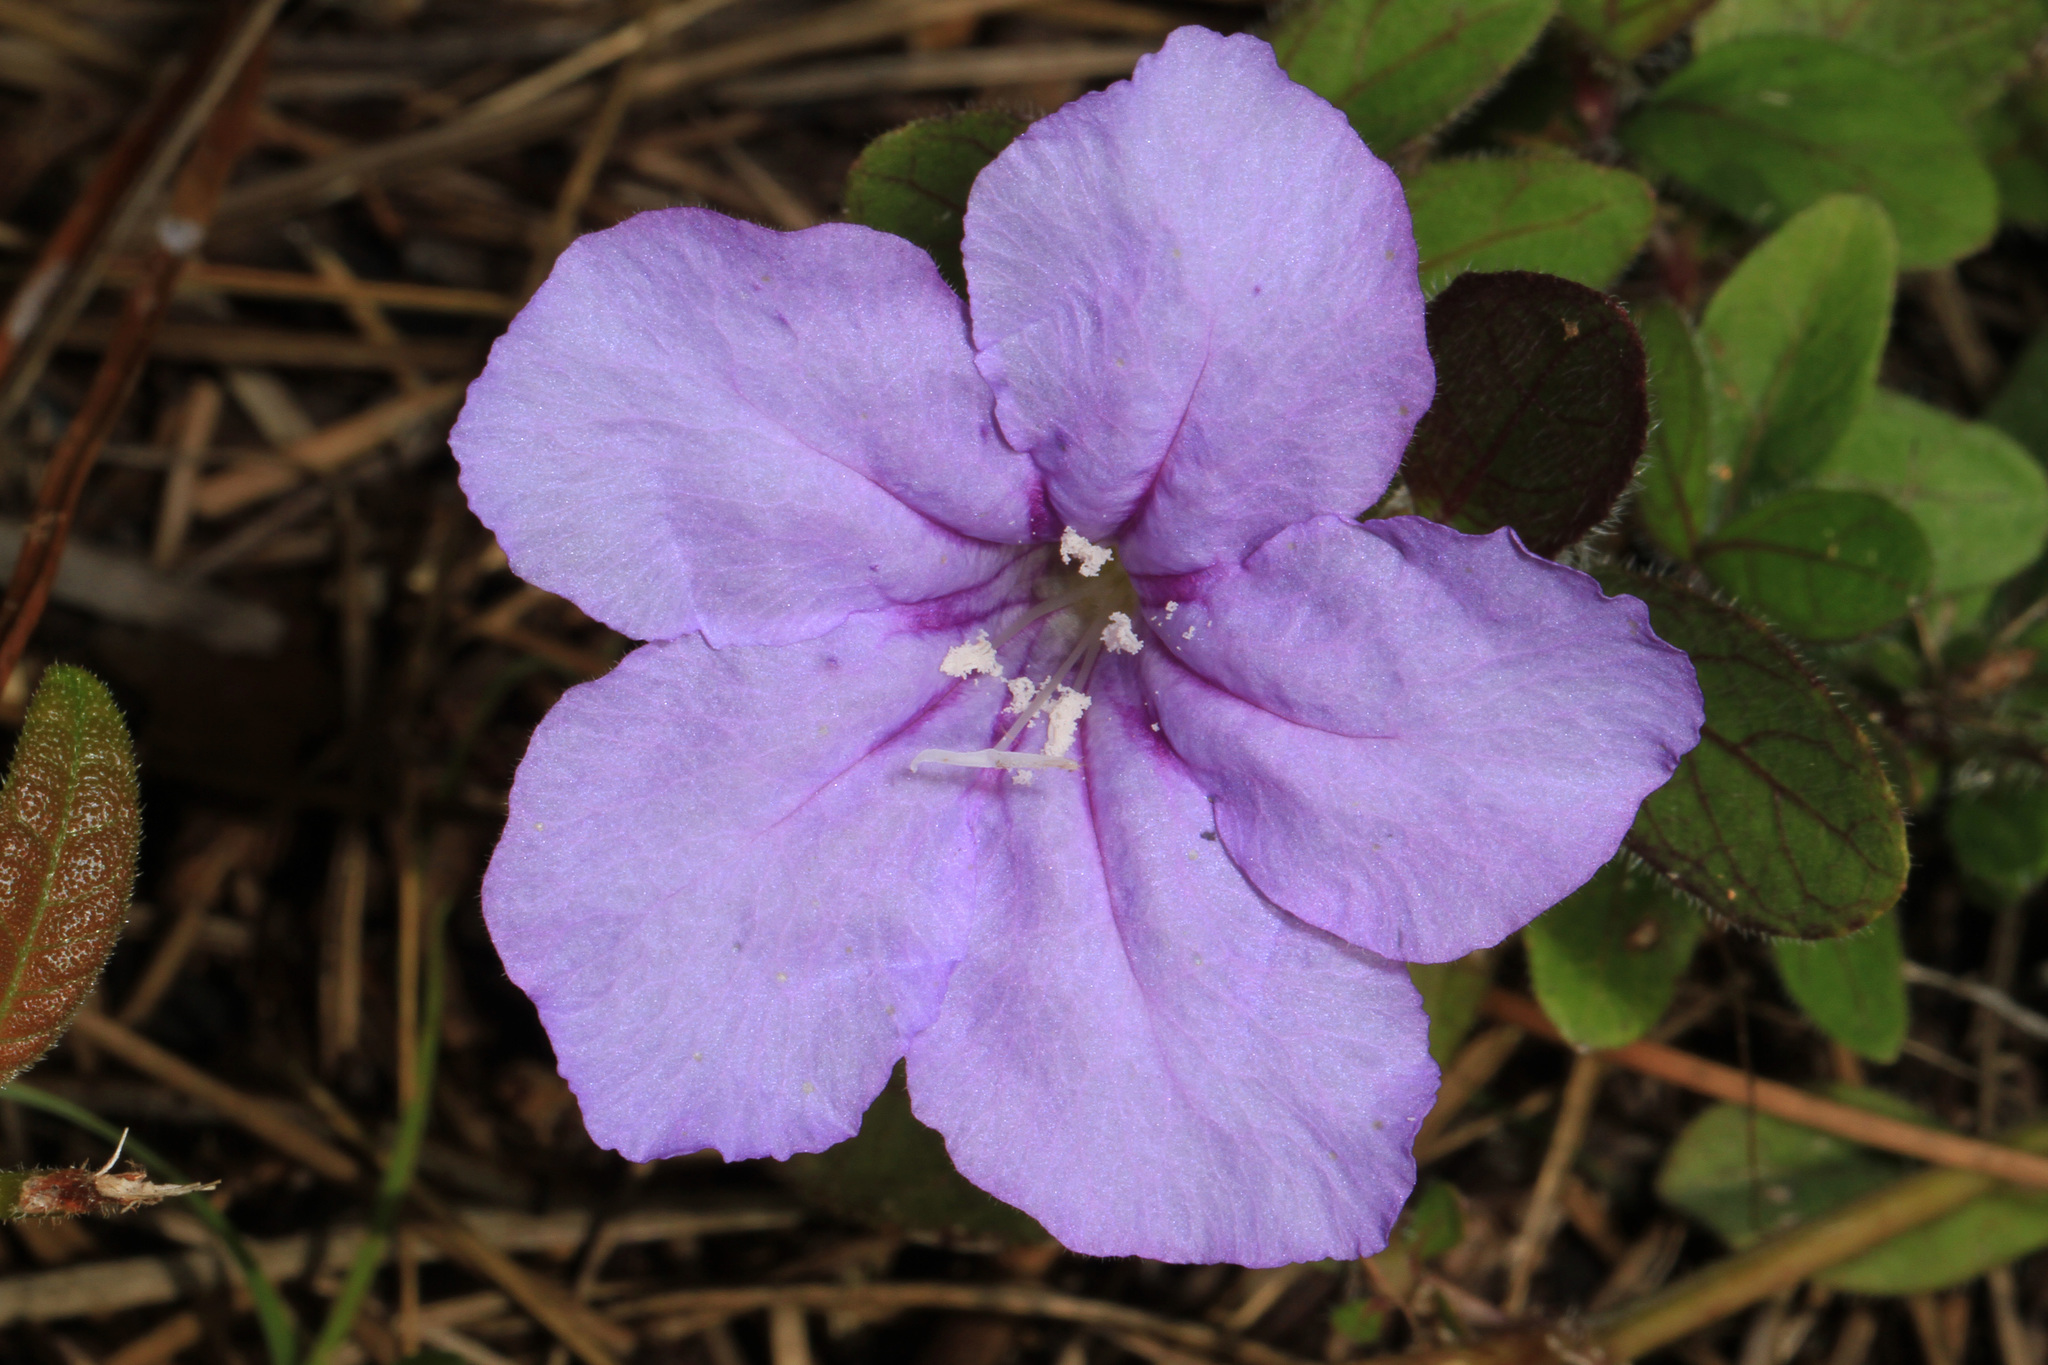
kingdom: Plantae
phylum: Tracheophyta
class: Magnoliopsida
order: Lamiales
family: Acanthaceae
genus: Ruellia
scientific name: Ruellia caroliniensis
